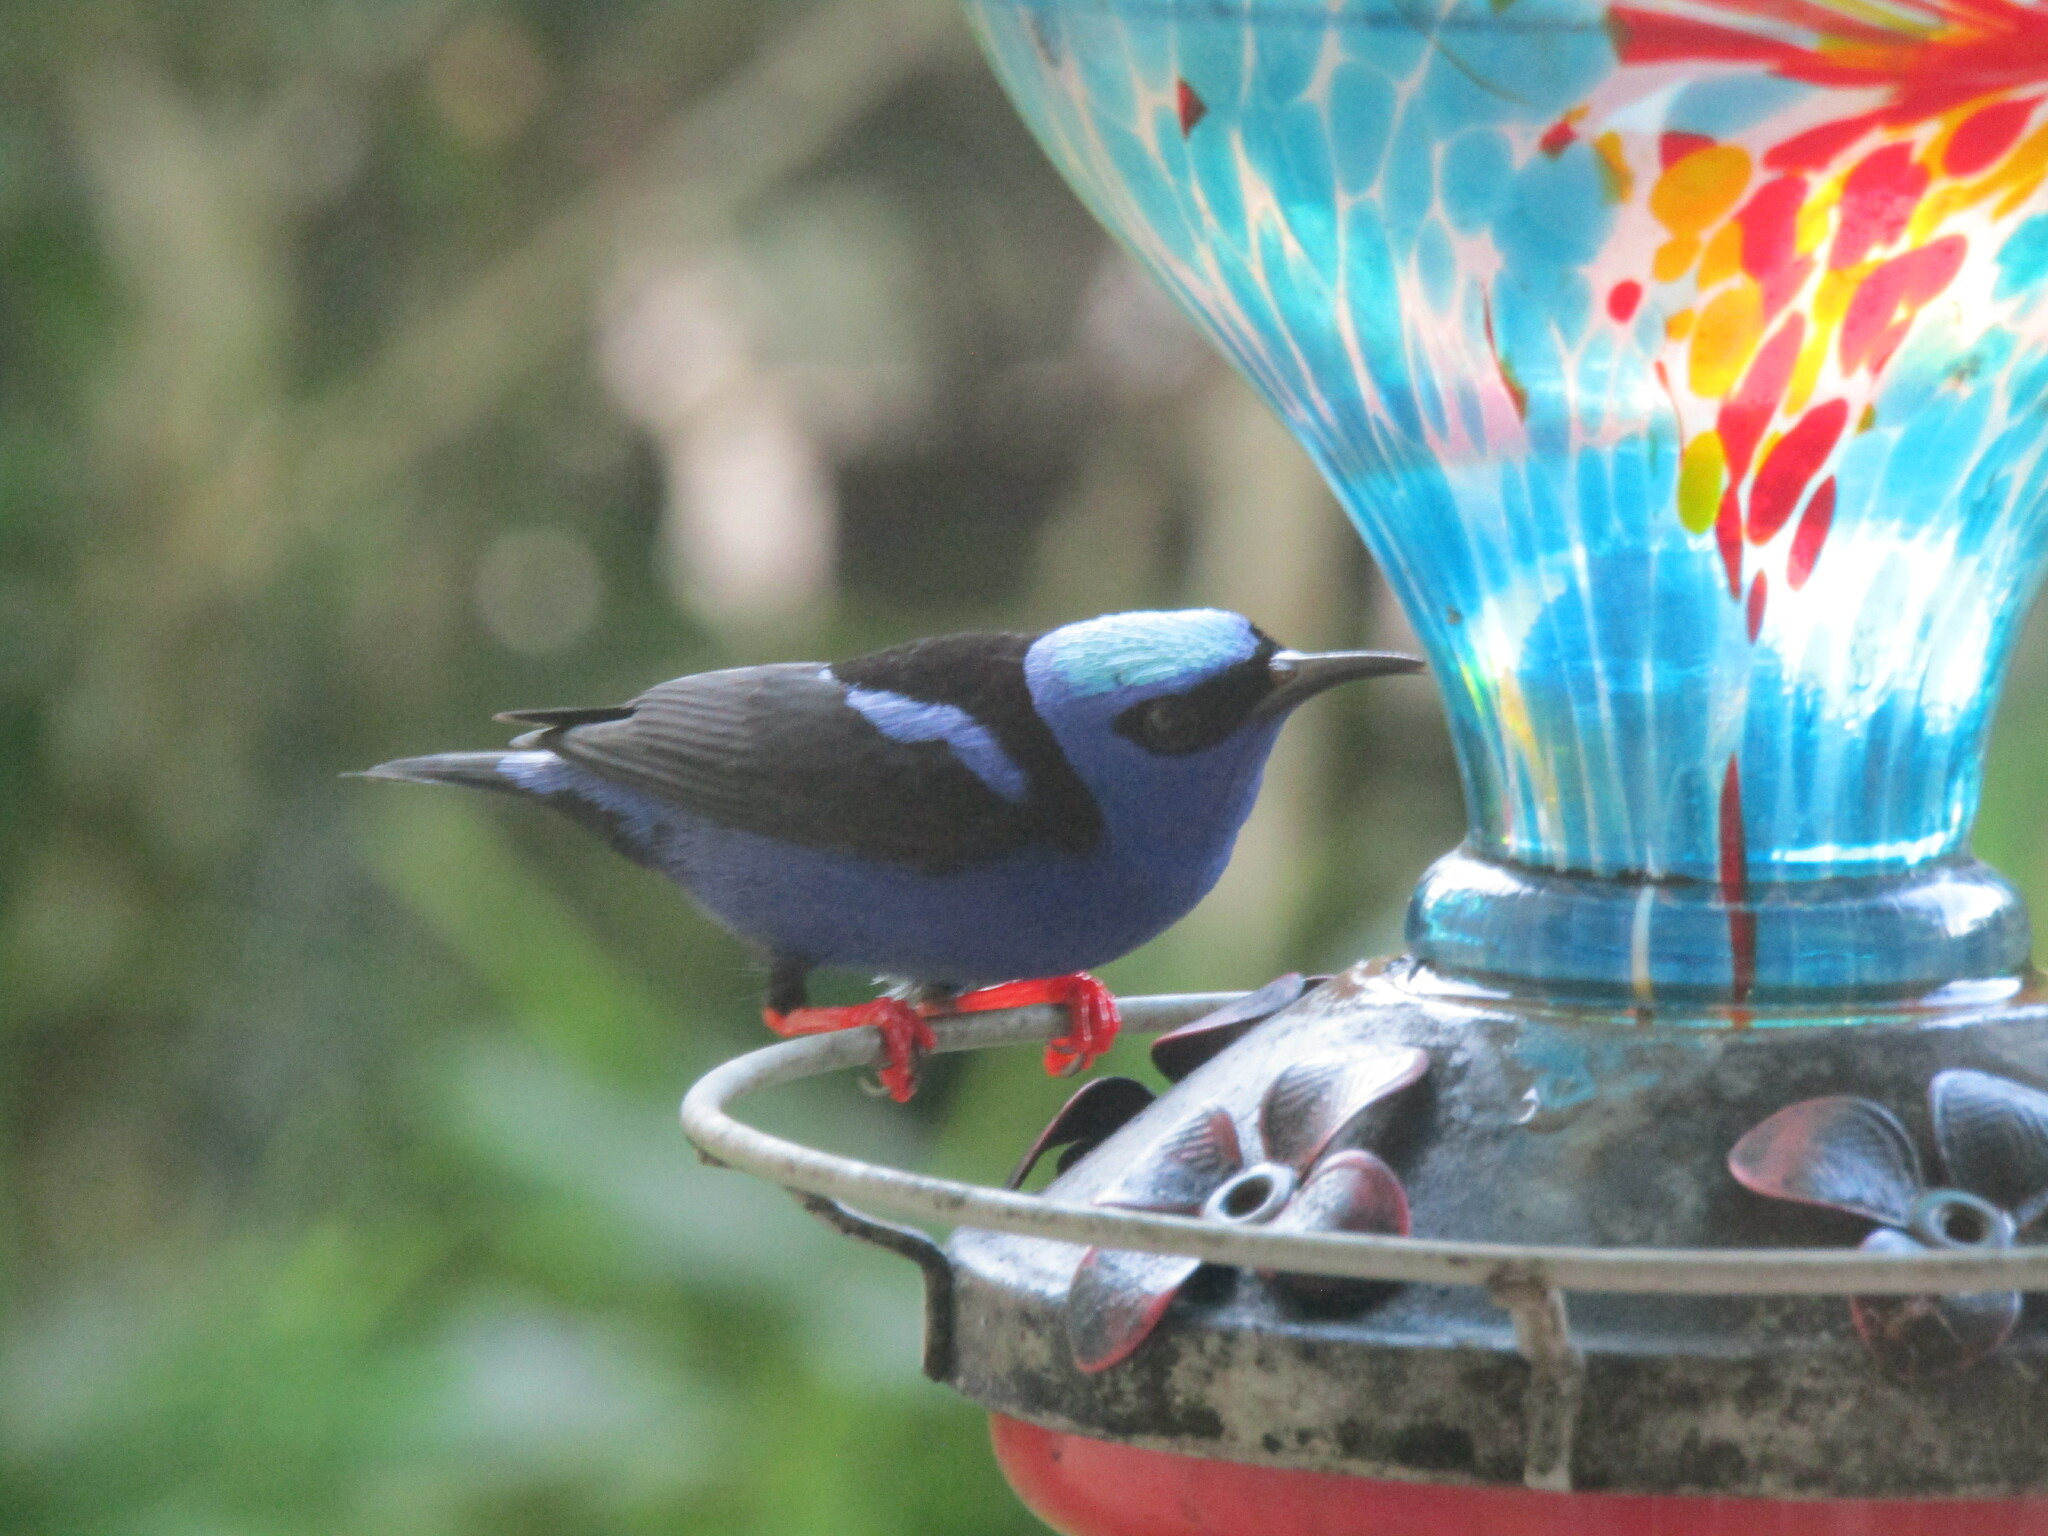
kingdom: Animalia
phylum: Chordata
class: Aves
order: Passeriformes
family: Thraupidae
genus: Cyanerpes
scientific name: Cyanerpes cyaneus
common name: Red-legged honeycreeper
